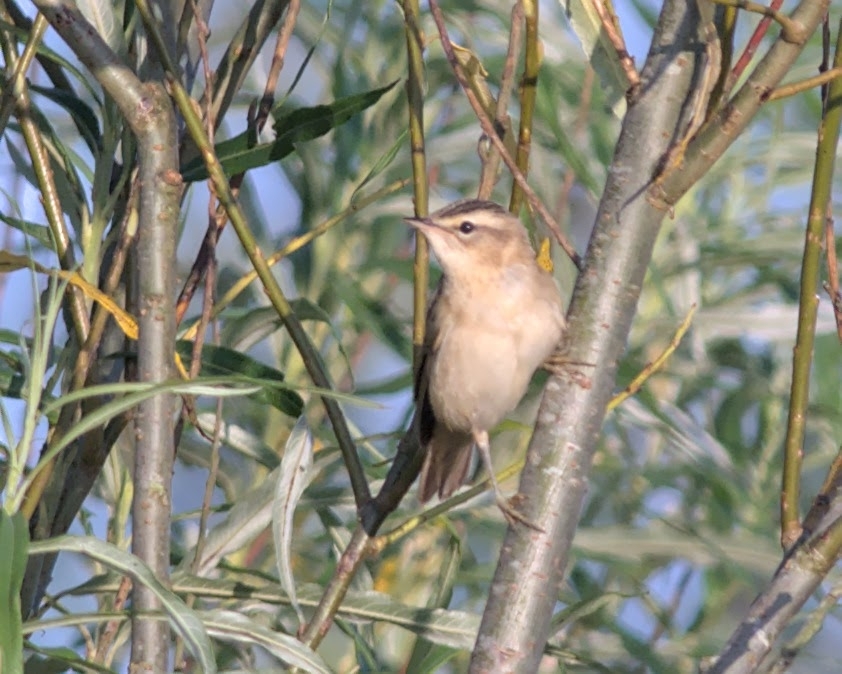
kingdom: Animalia
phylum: Chordata
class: Aves
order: Passeriformes
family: Acrocephalidae
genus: Acrocephalus
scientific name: Acrocephalus schoenobaenus
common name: Sedge warbler
